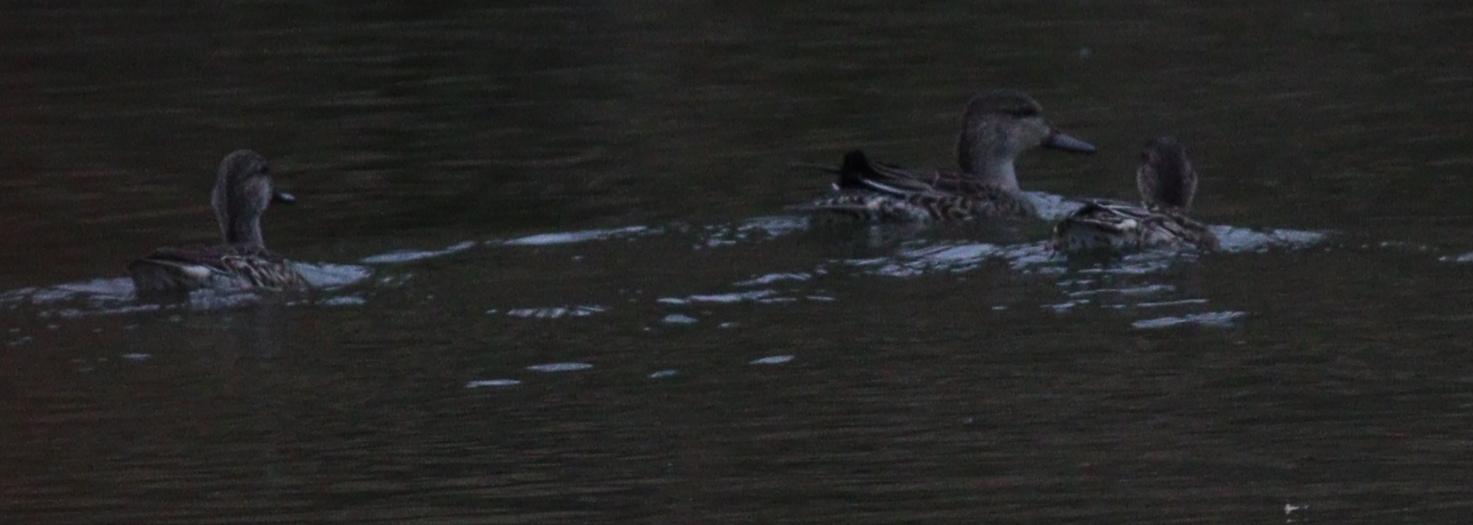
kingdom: Animalia
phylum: Chordata
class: Aves
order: Anseriformes
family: Anatidae
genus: Anas
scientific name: Anas crecca
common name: Eurasian teal
